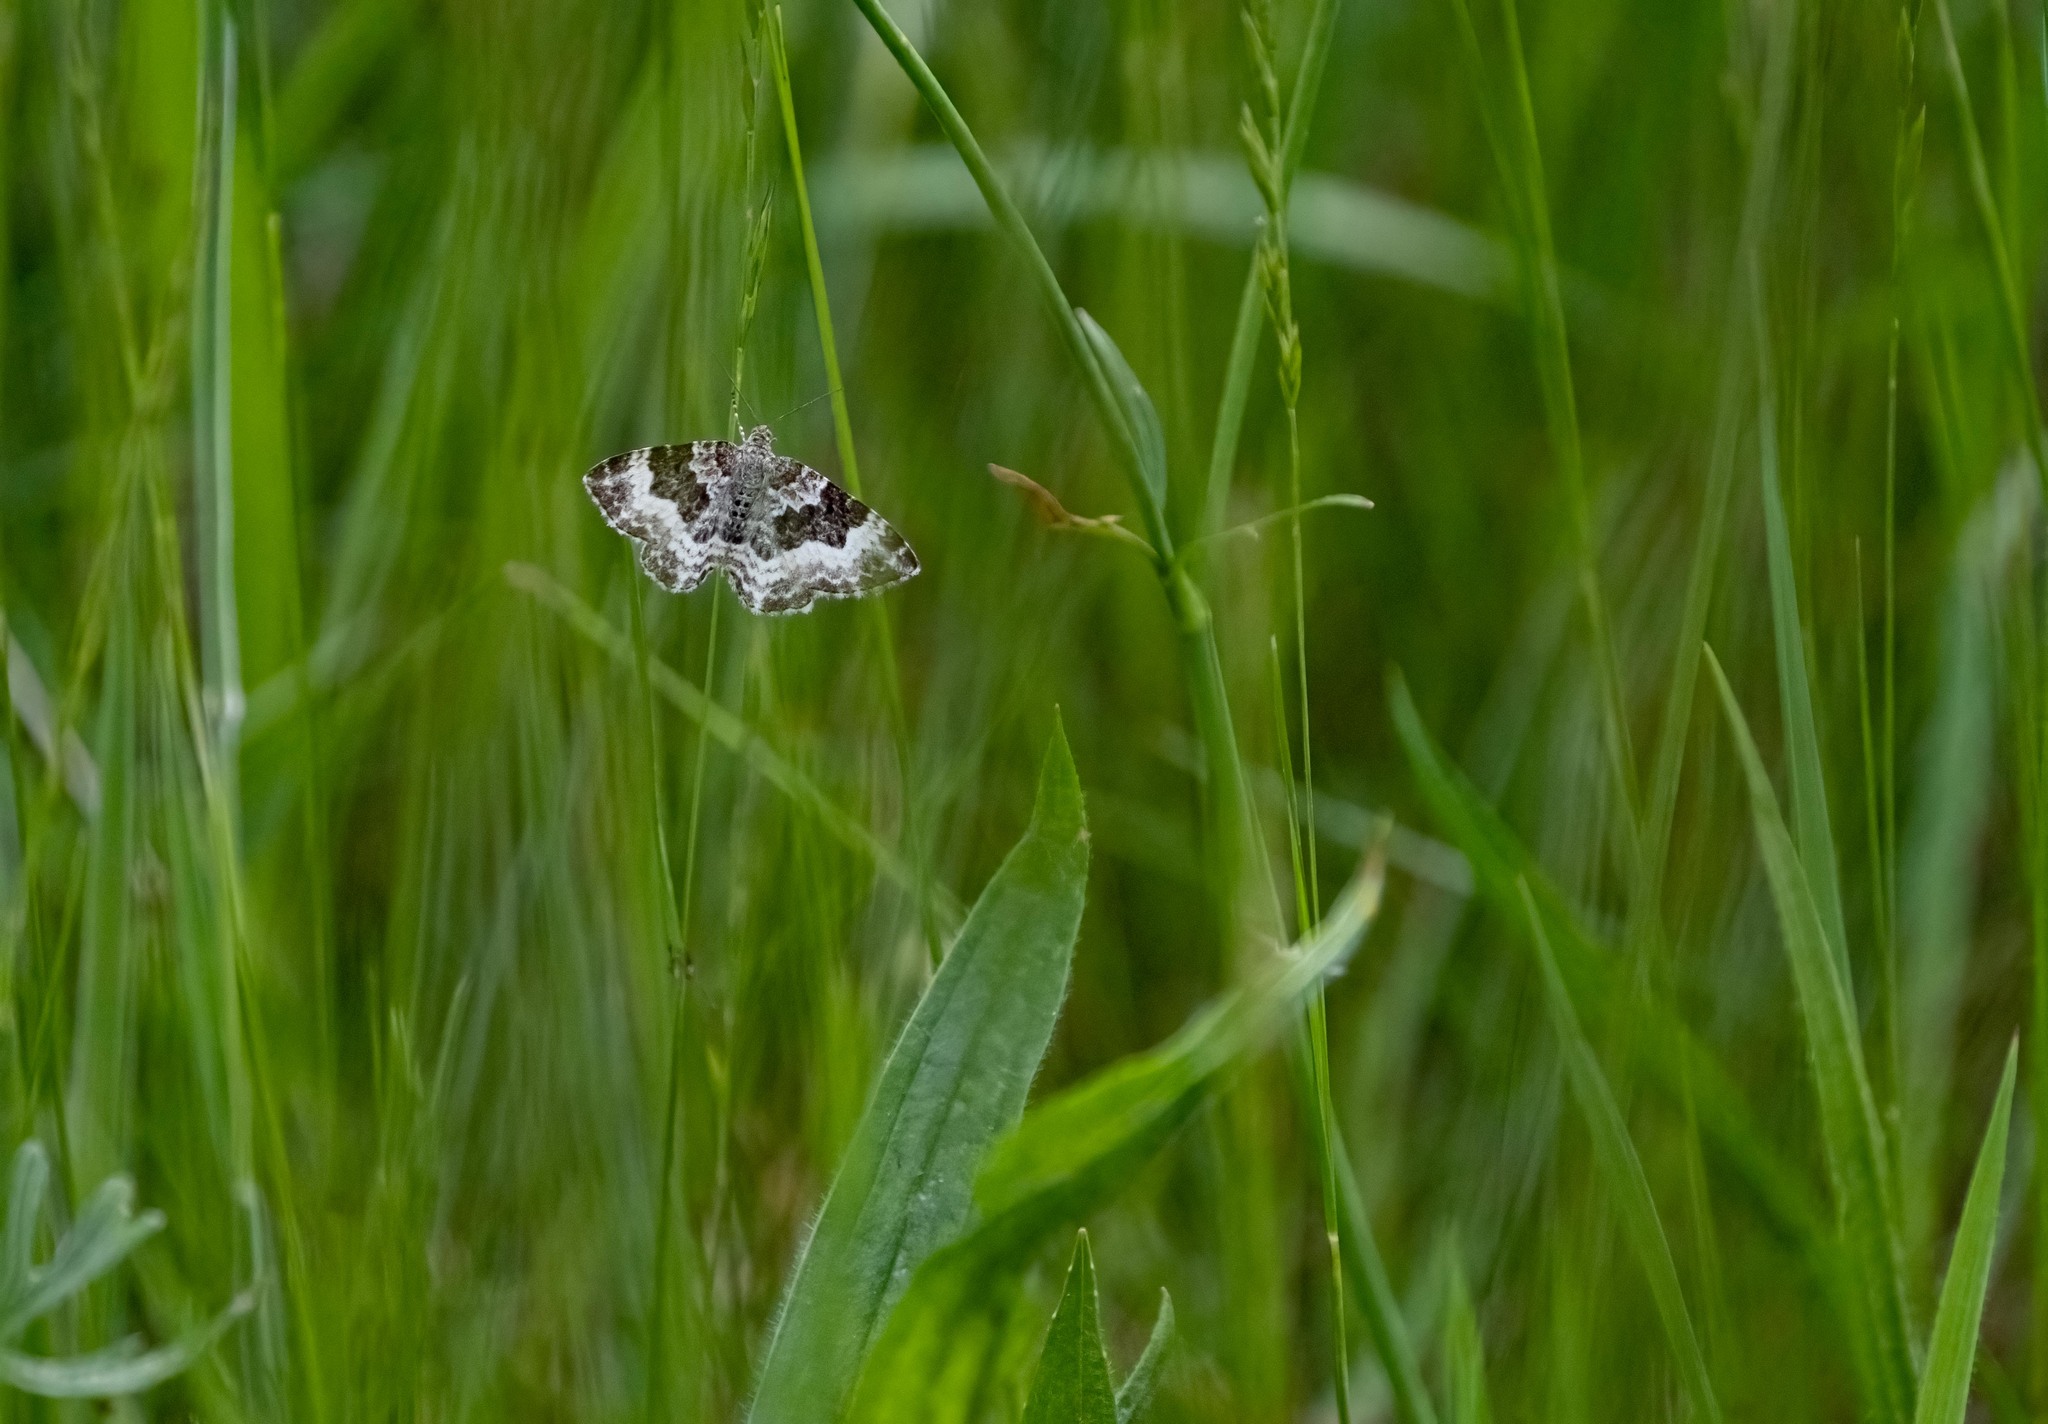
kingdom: Animalia
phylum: Arthropoda
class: Insecta
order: Lepidoptera
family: Geometridae
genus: Epirrhoe
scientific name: Epirrhoe alternata
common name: Common carpet
